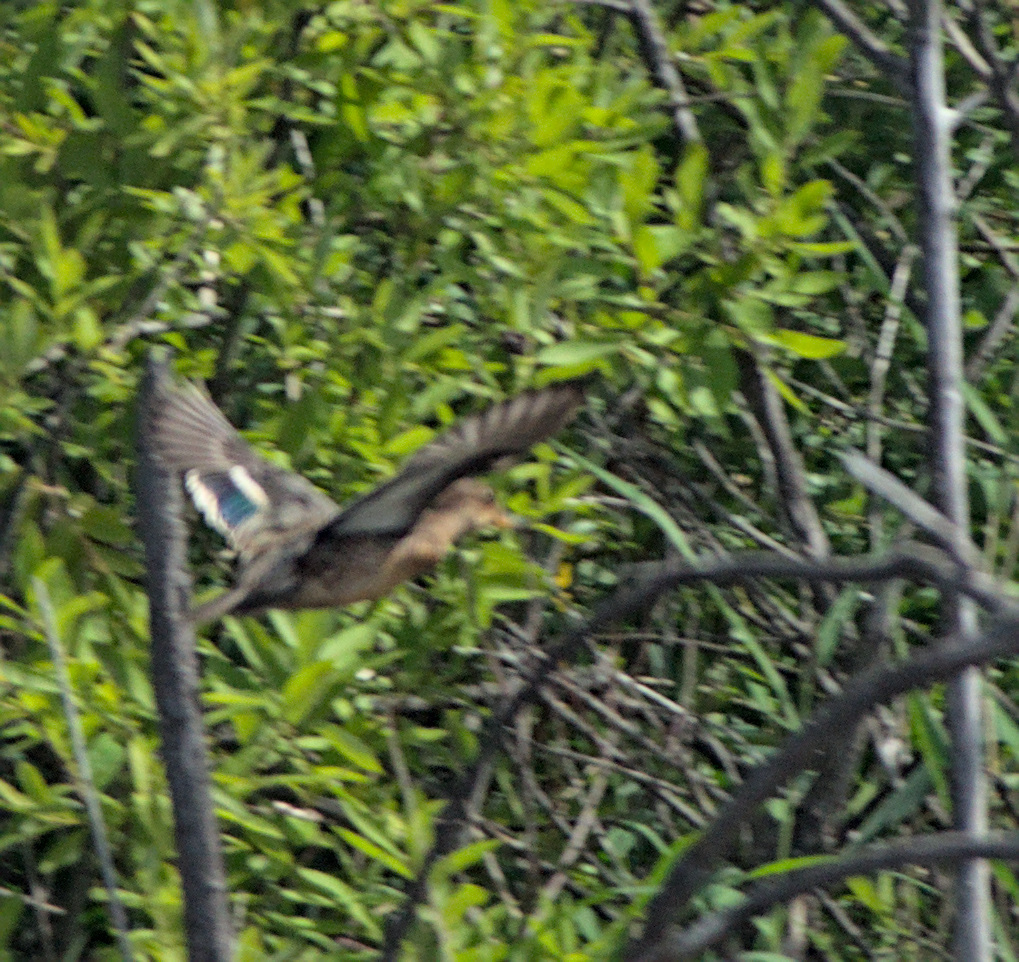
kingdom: Animalia
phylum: Chordata
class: Aves
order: Anseriformes
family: Anatidae
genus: Anas
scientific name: Anas crecca
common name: Eurasian teal
